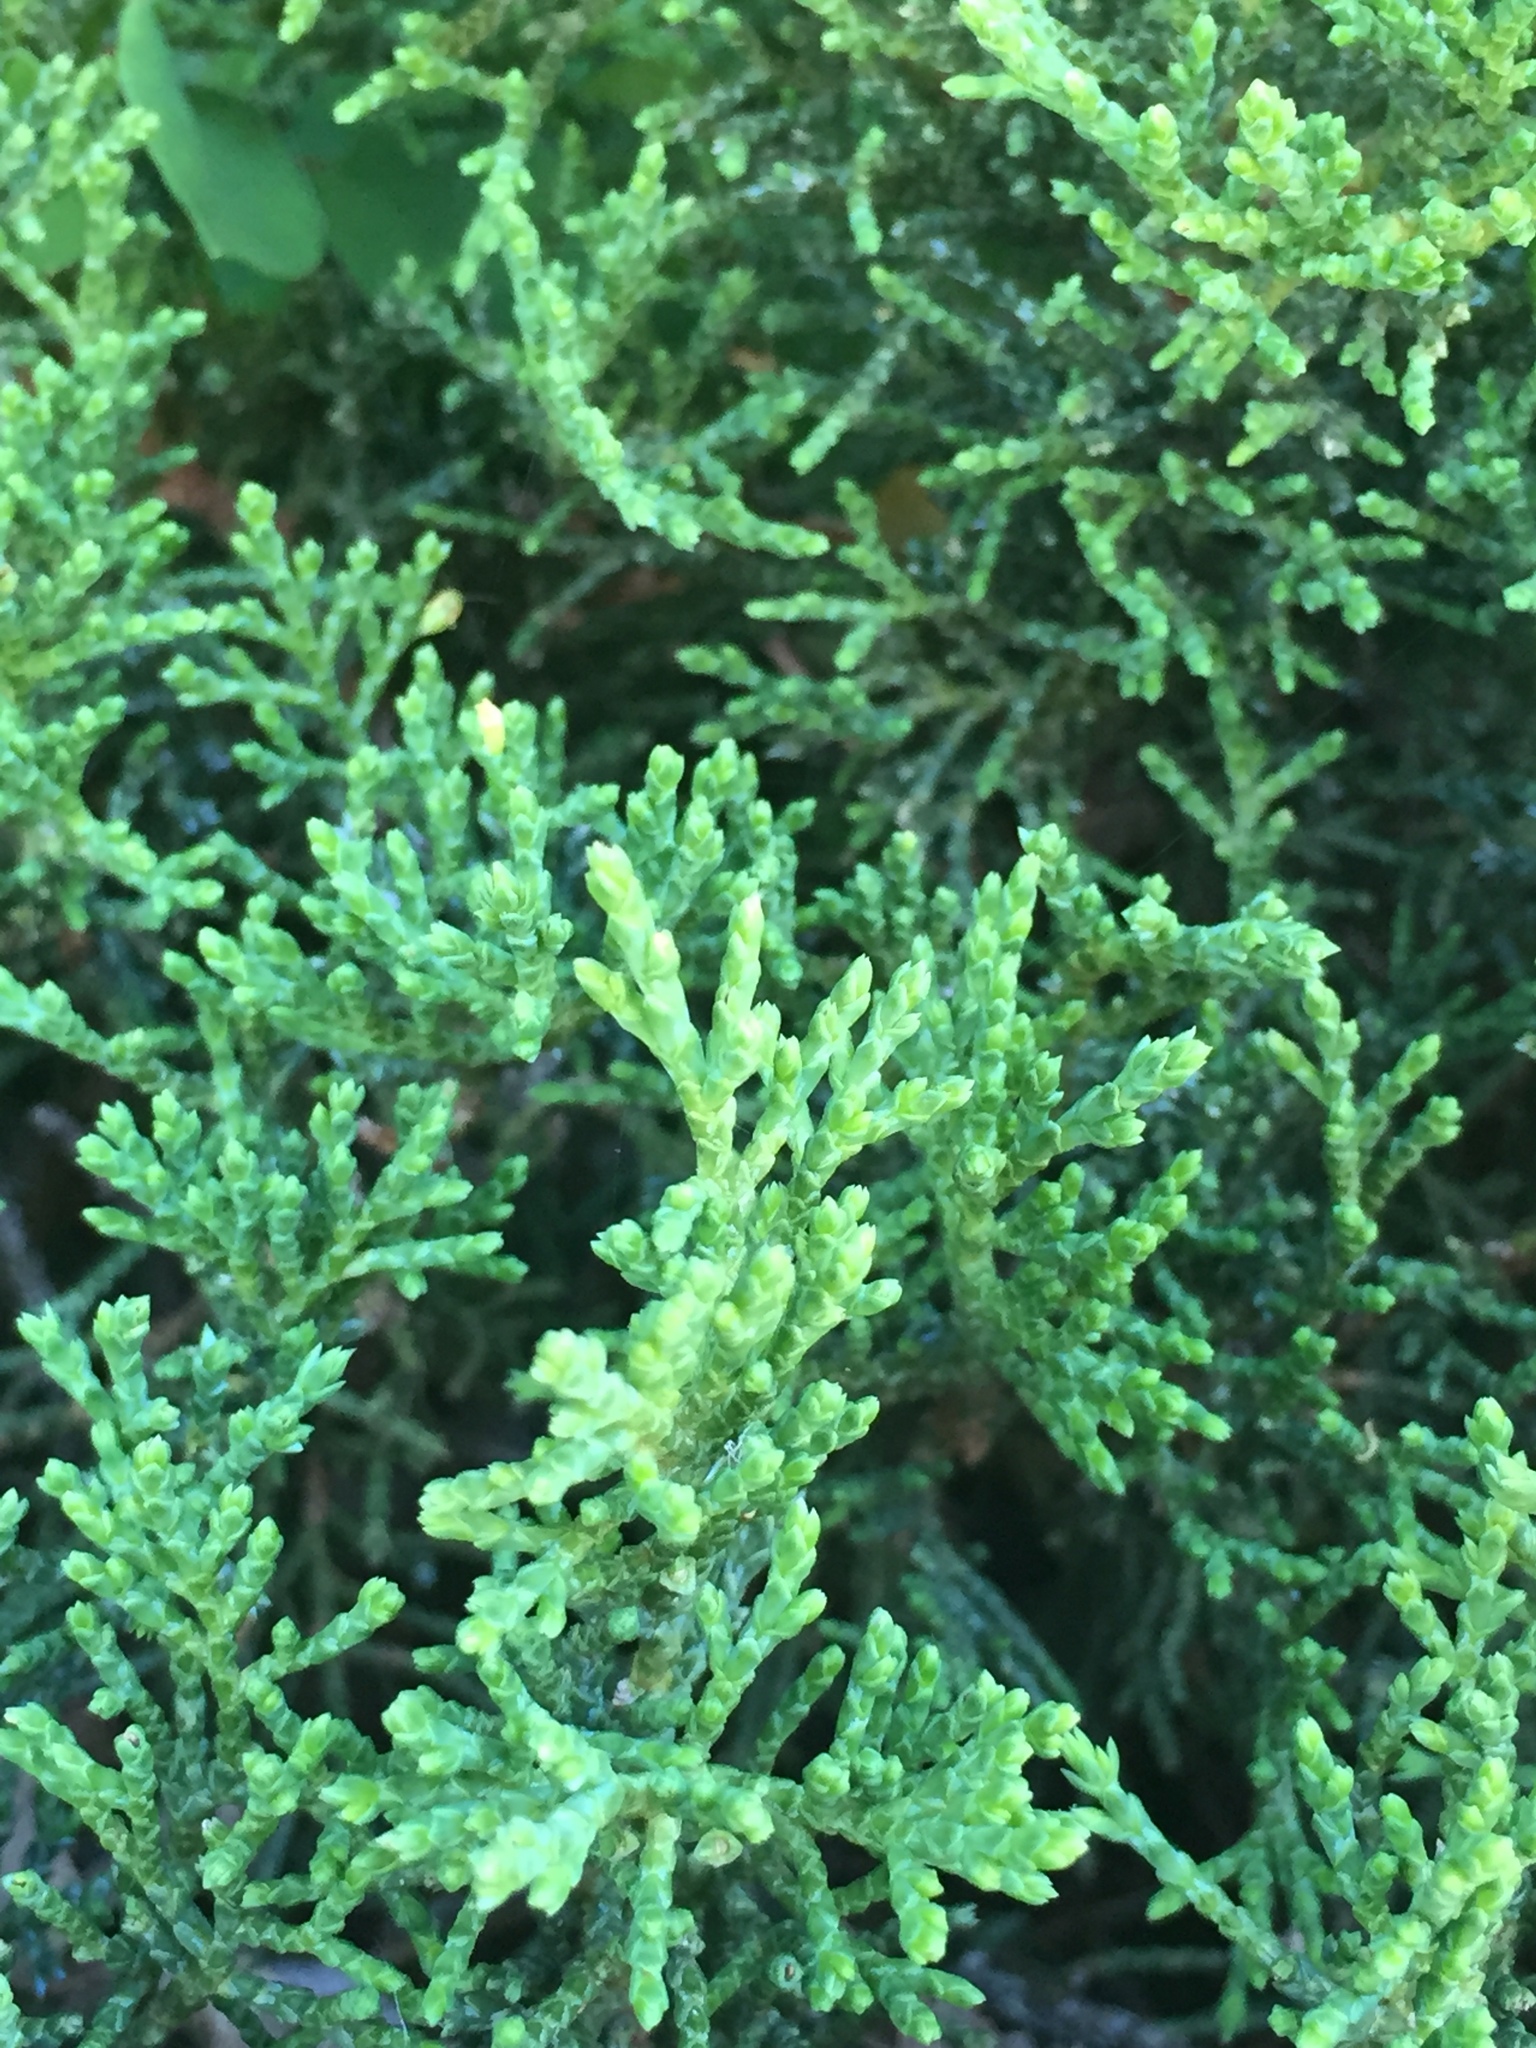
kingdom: Plantae
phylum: Tracheophyta
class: Pinopsida
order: Pinales
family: Cupressaceae
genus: Juniperus
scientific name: Juniperus virginiana
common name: Red juniper
